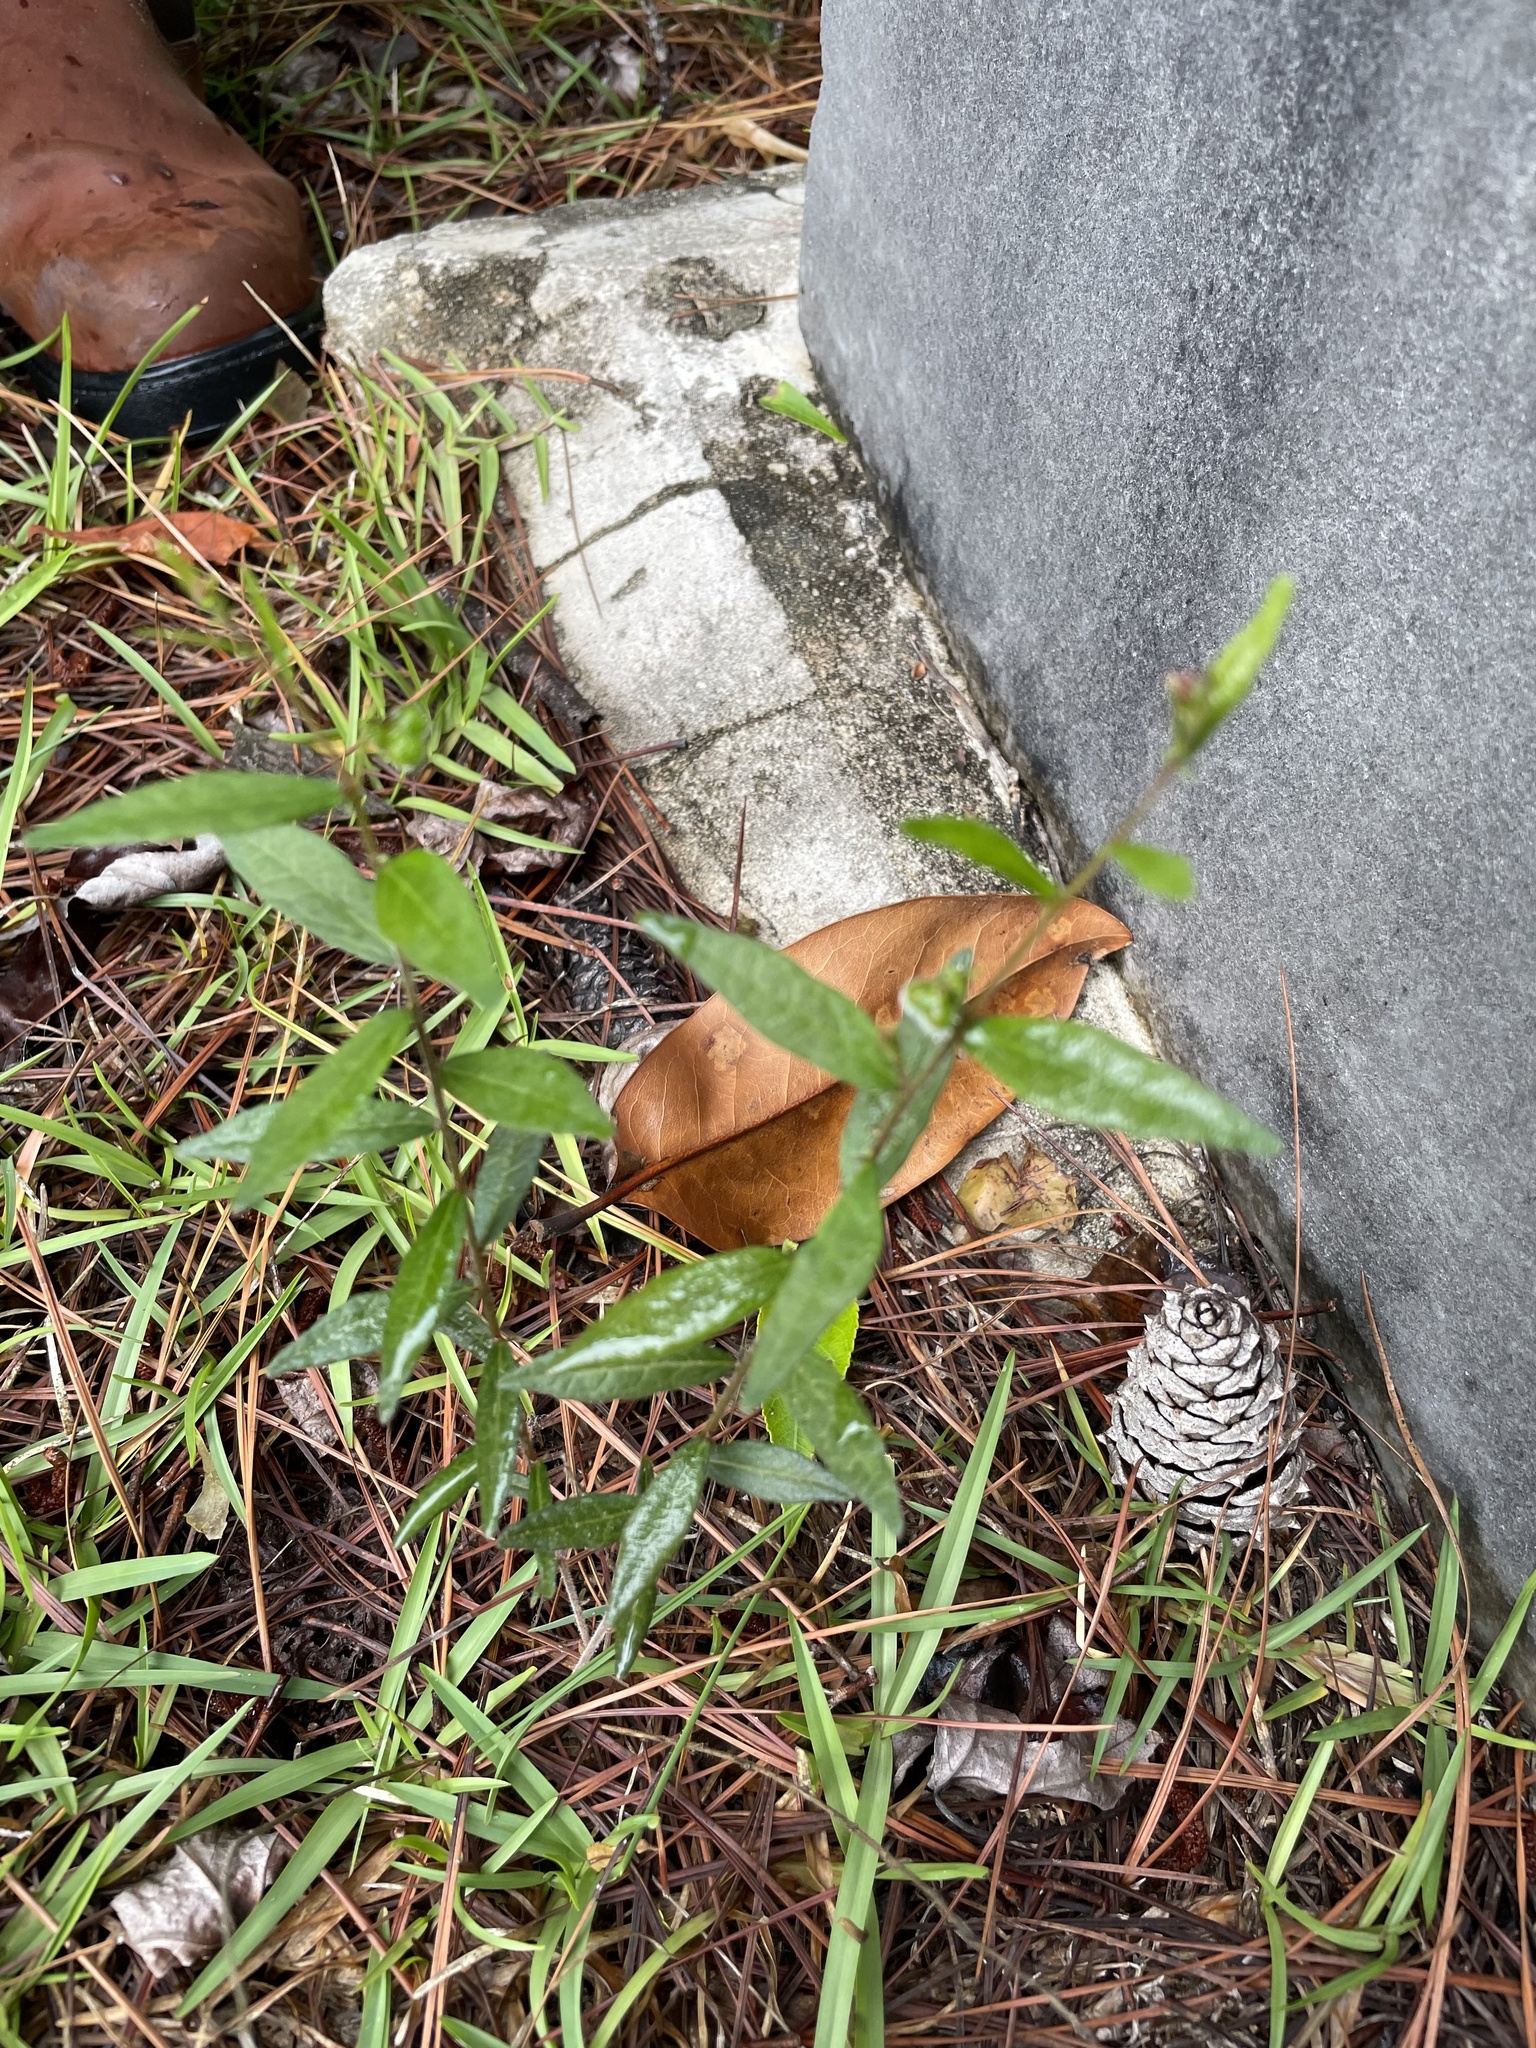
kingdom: Plantae
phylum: Tracheophyta
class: Magnoliopsida
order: Malpighiales
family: Euphorbiaceae
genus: Tragia
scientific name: Tragia urens
